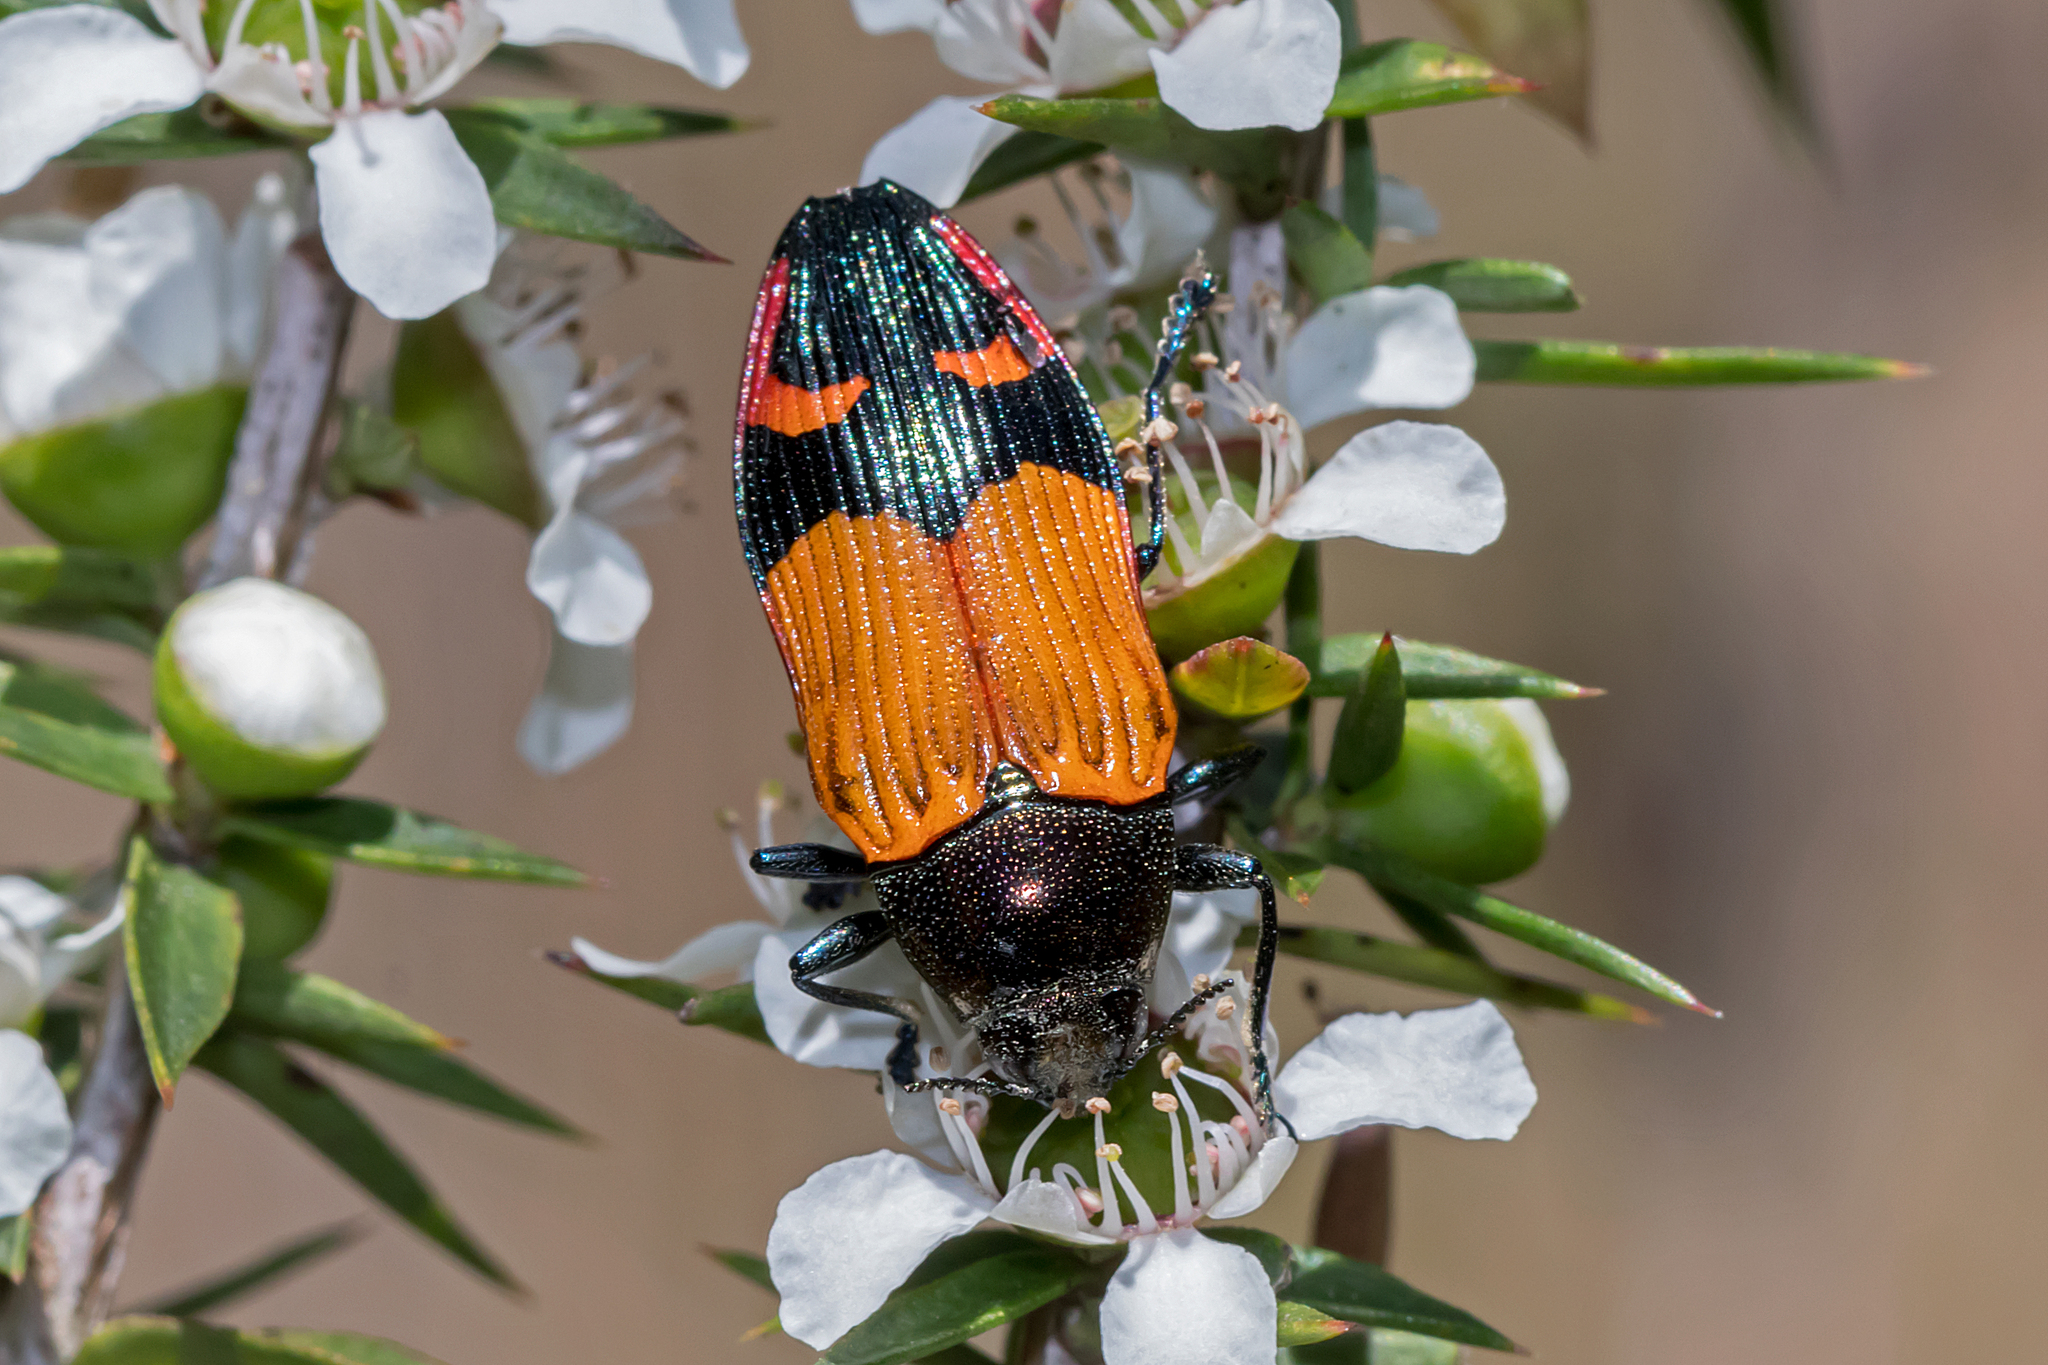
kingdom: Animalia
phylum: Arthropoda
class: Insecta
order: Coleoptera
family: Buprestidae
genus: Castiarina
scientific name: Castiarina brutella
